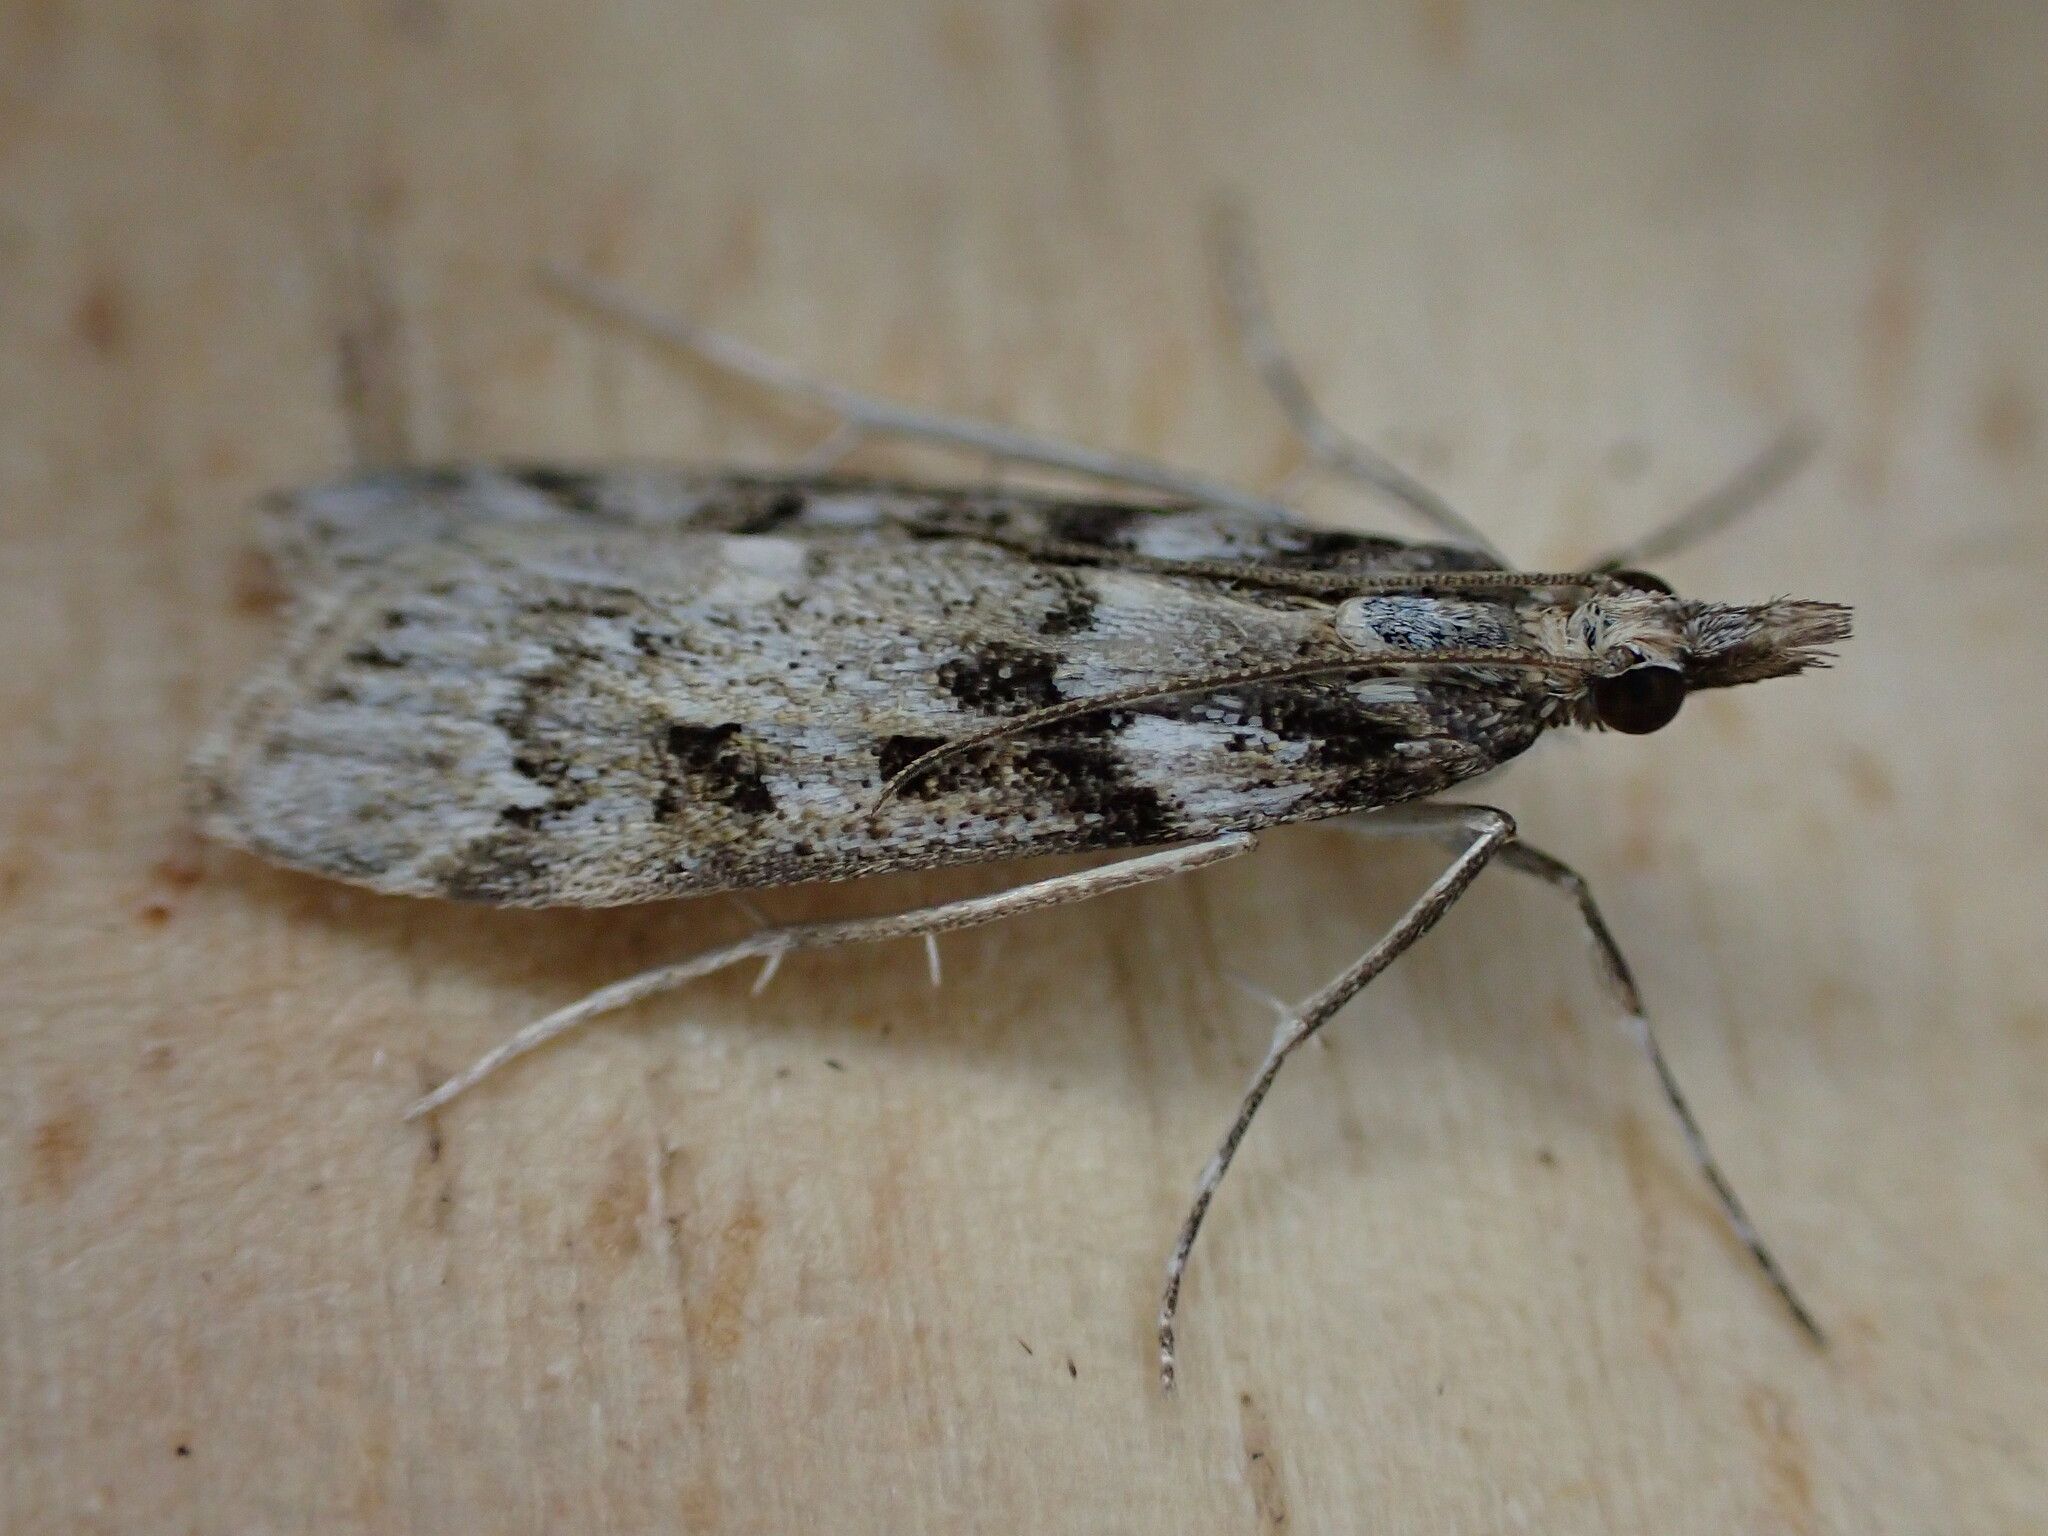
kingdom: Animalia
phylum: Arthropoda
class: Insecta
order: Lepidoptera
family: Crambidae
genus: Eudonia
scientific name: Eudonia angustea
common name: Narrow-winged grey
